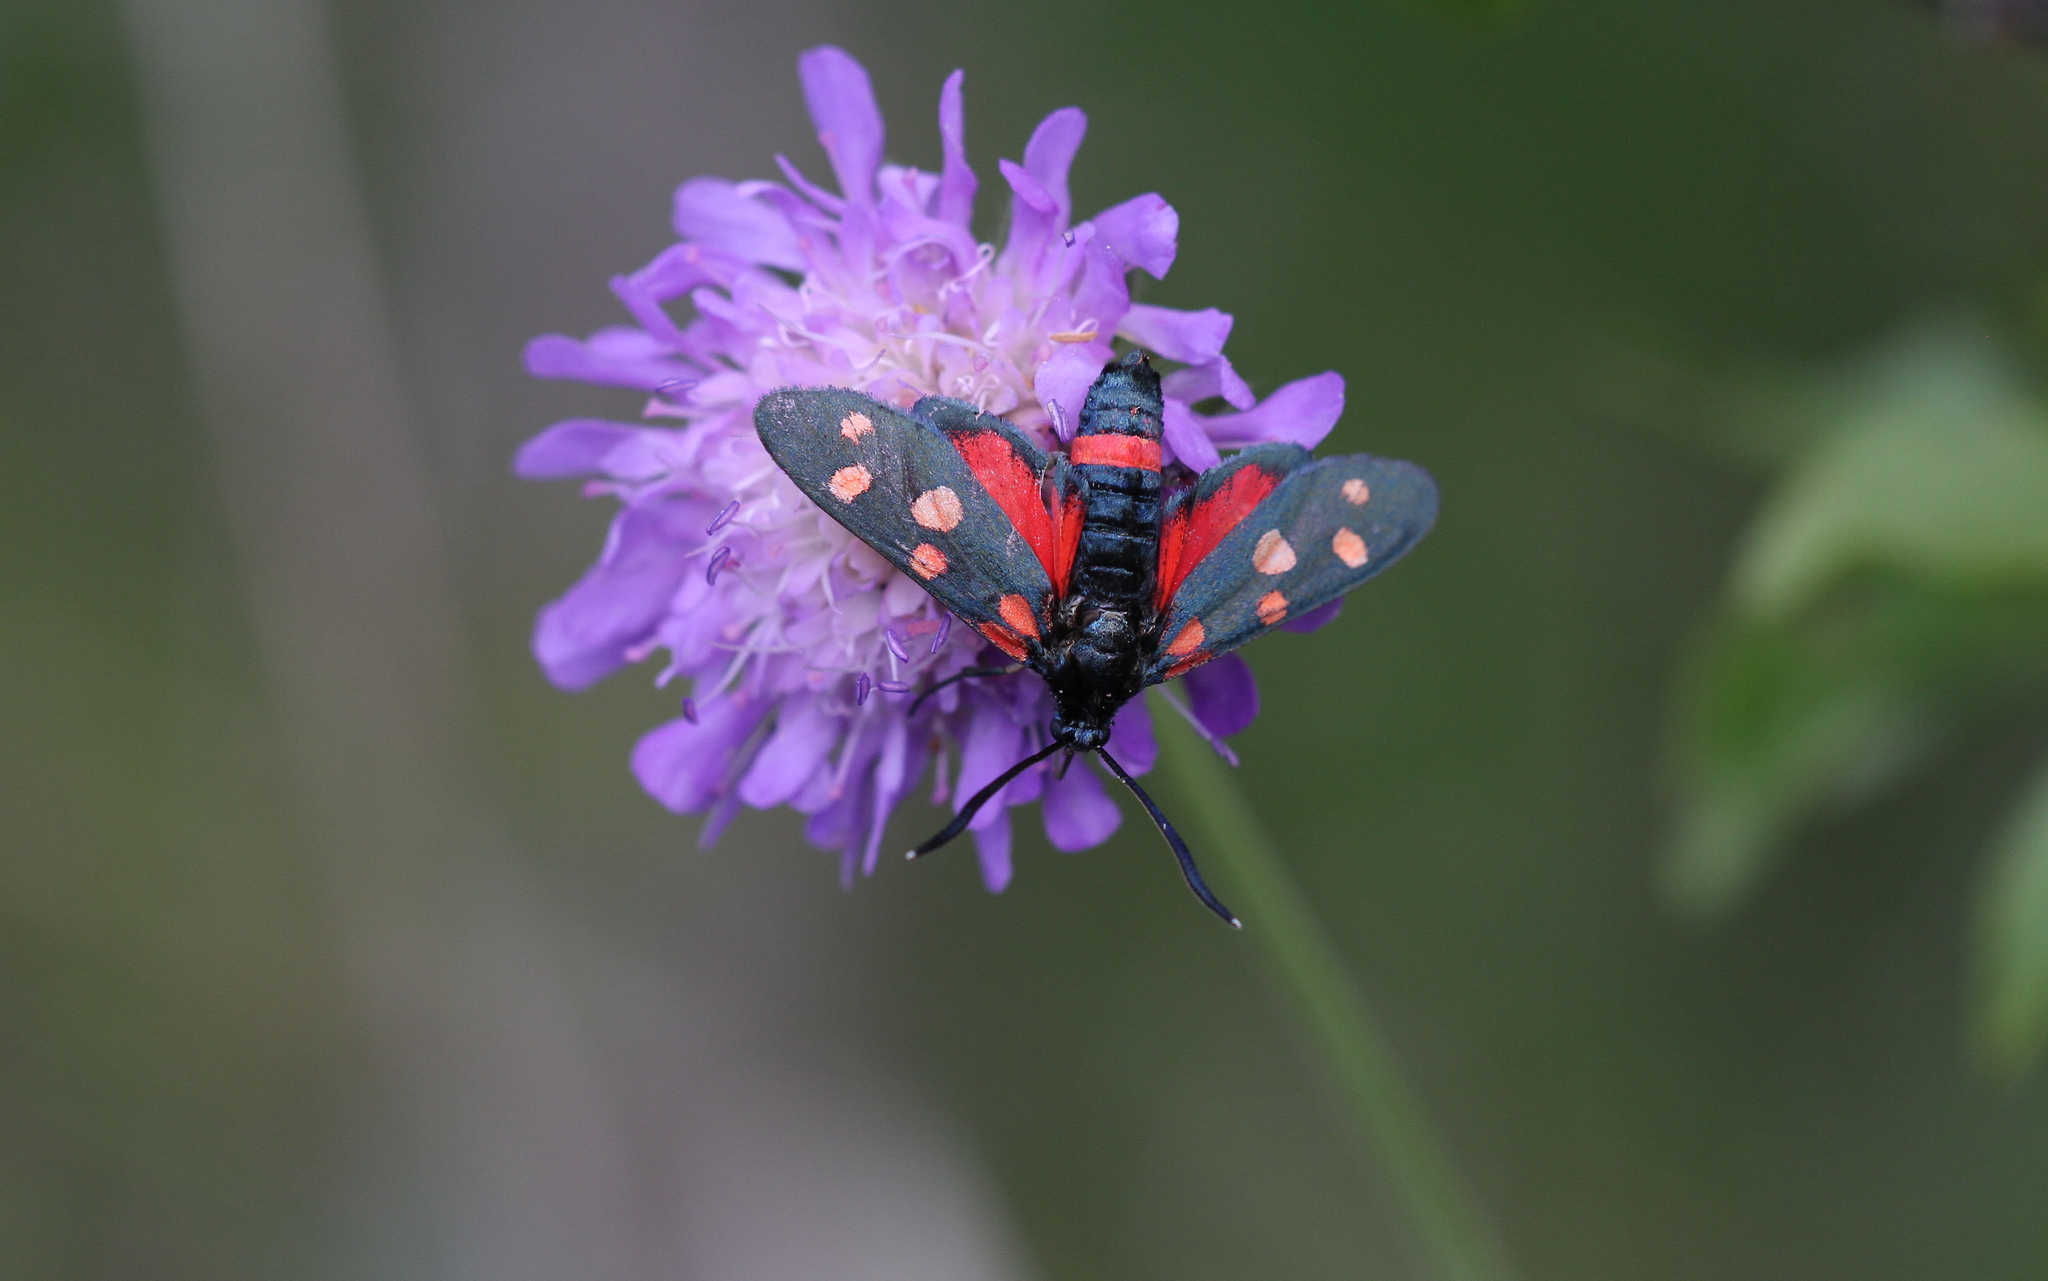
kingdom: Animalia
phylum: Arthropoda
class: Insecta
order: Lepidoptera
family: Zygaenidae
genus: Zygaena
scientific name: Zygaena ephialtes
